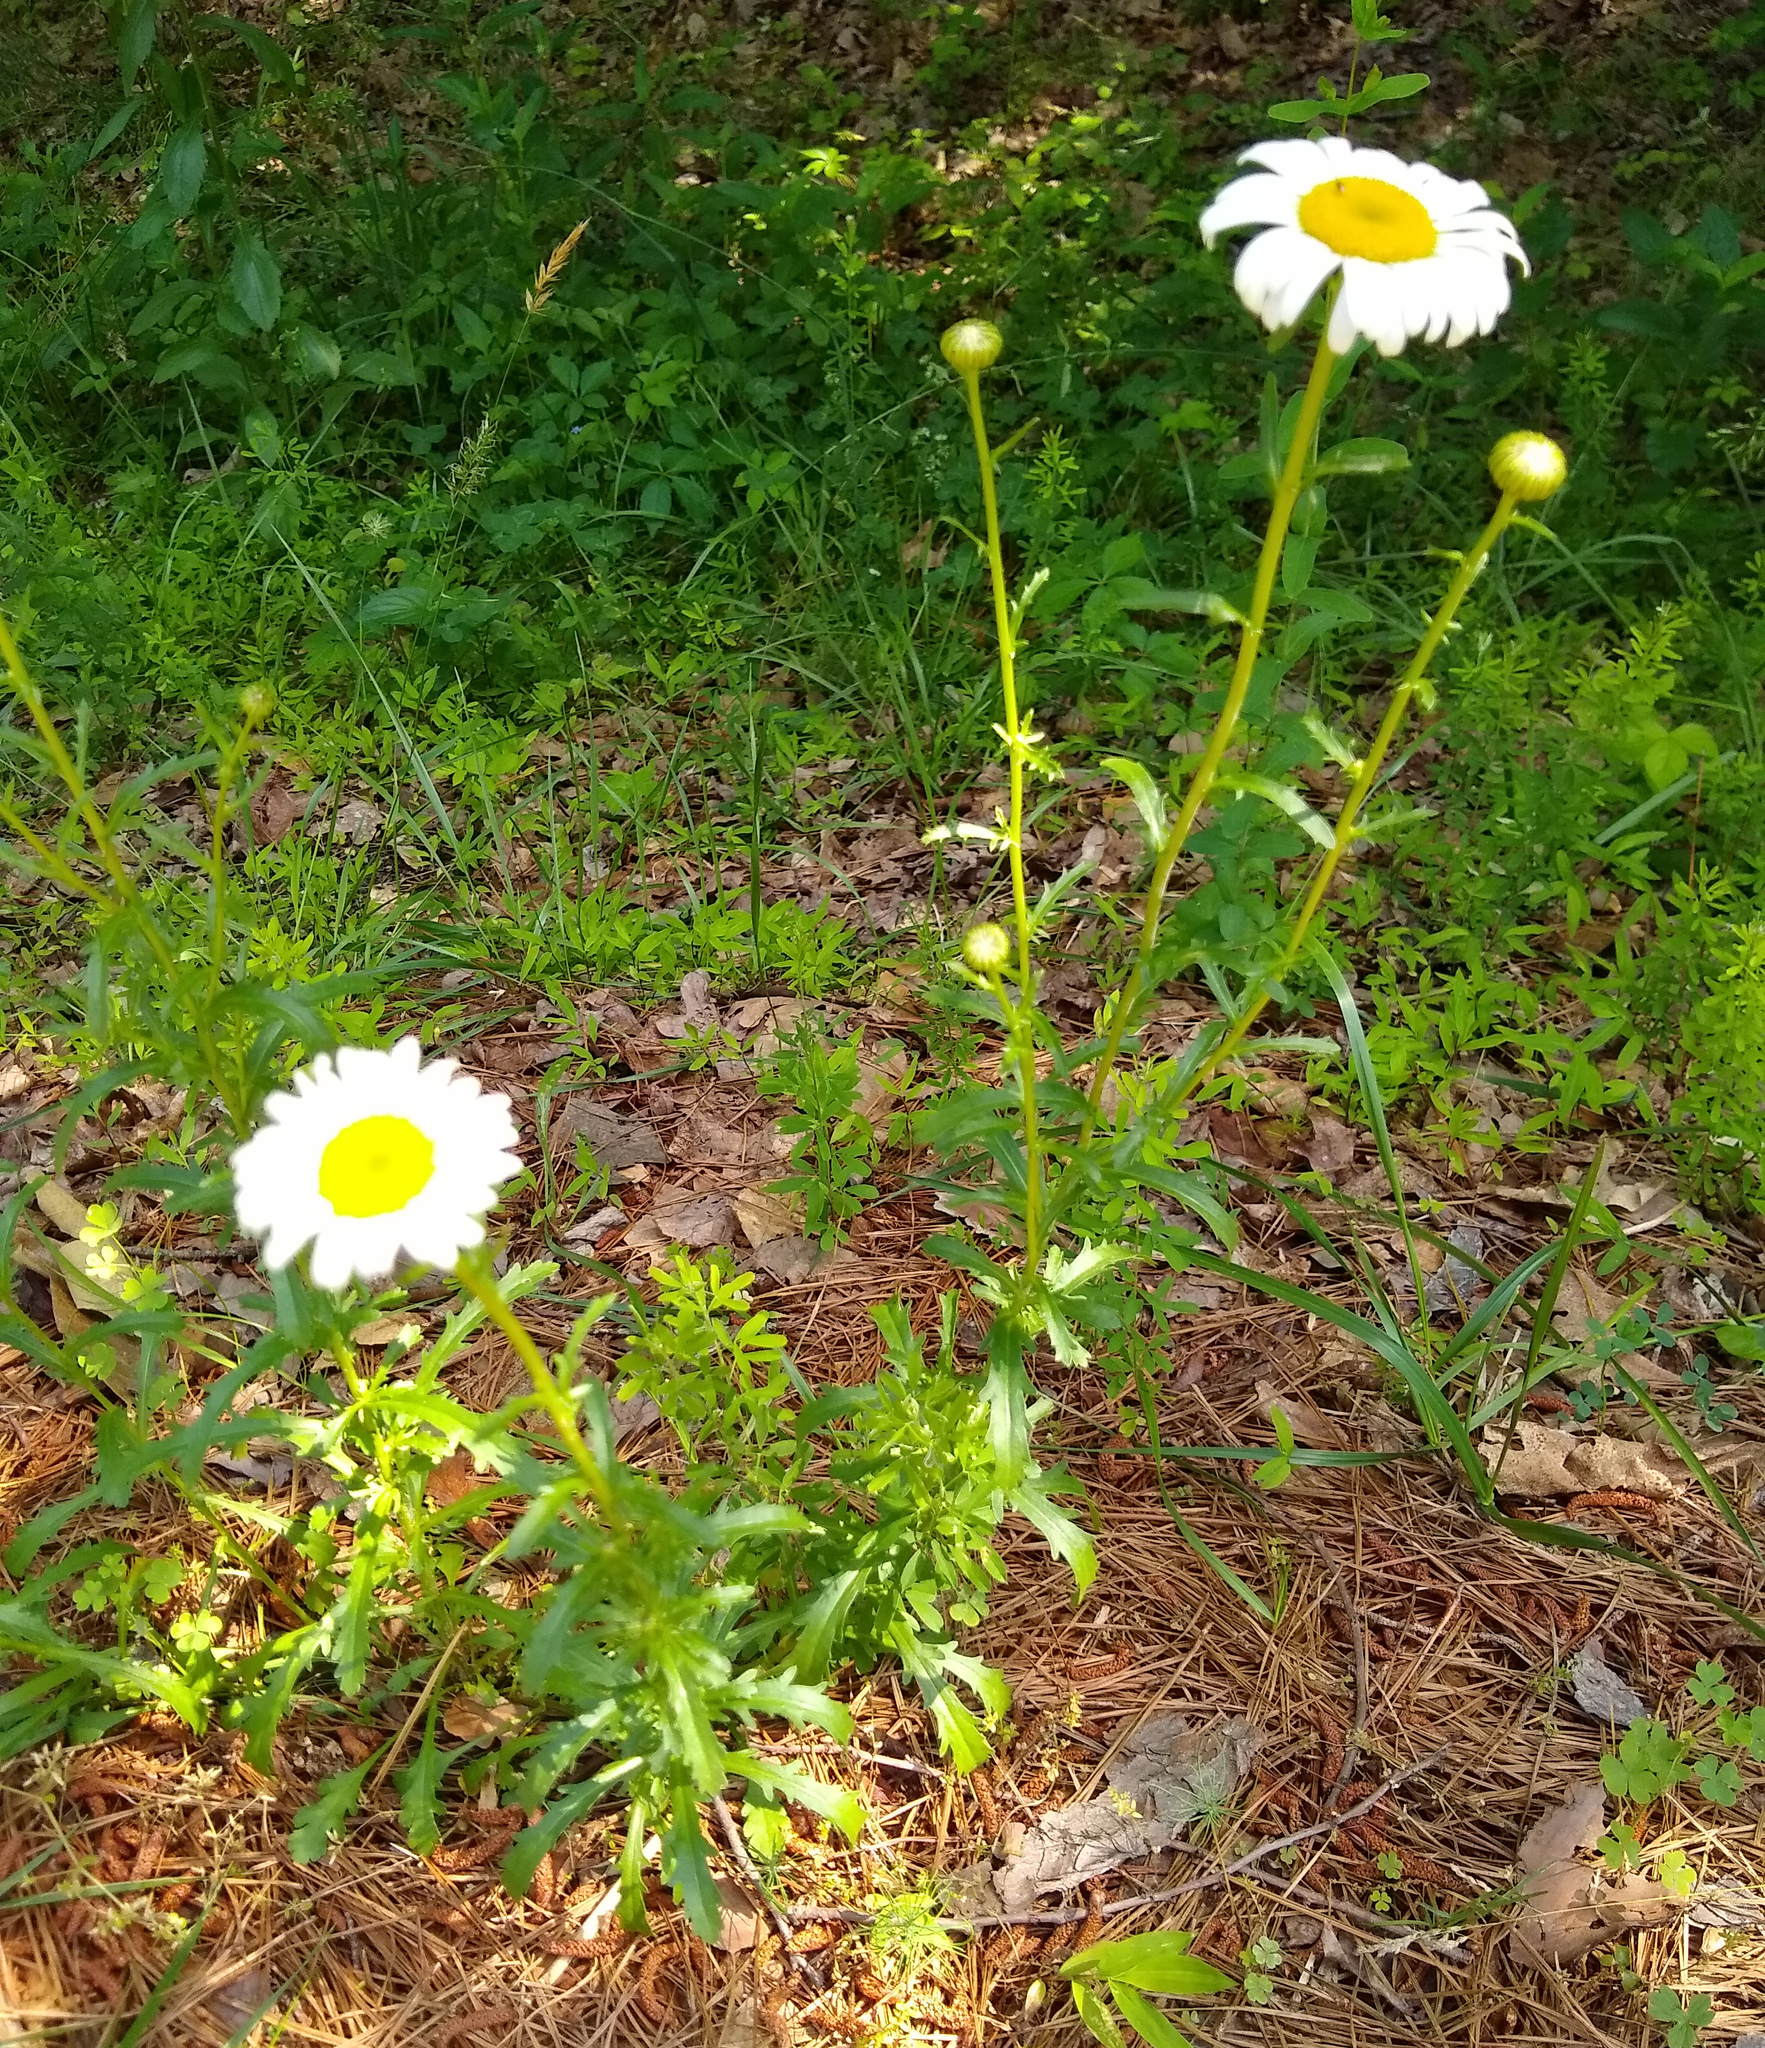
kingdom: Plantae
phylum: Tracheophyta
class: Magnoliopsida
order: Asterales
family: Asteraceae
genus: Leucanthemum
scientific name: Leucanthemum vulgare
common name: Oxeye daisy
